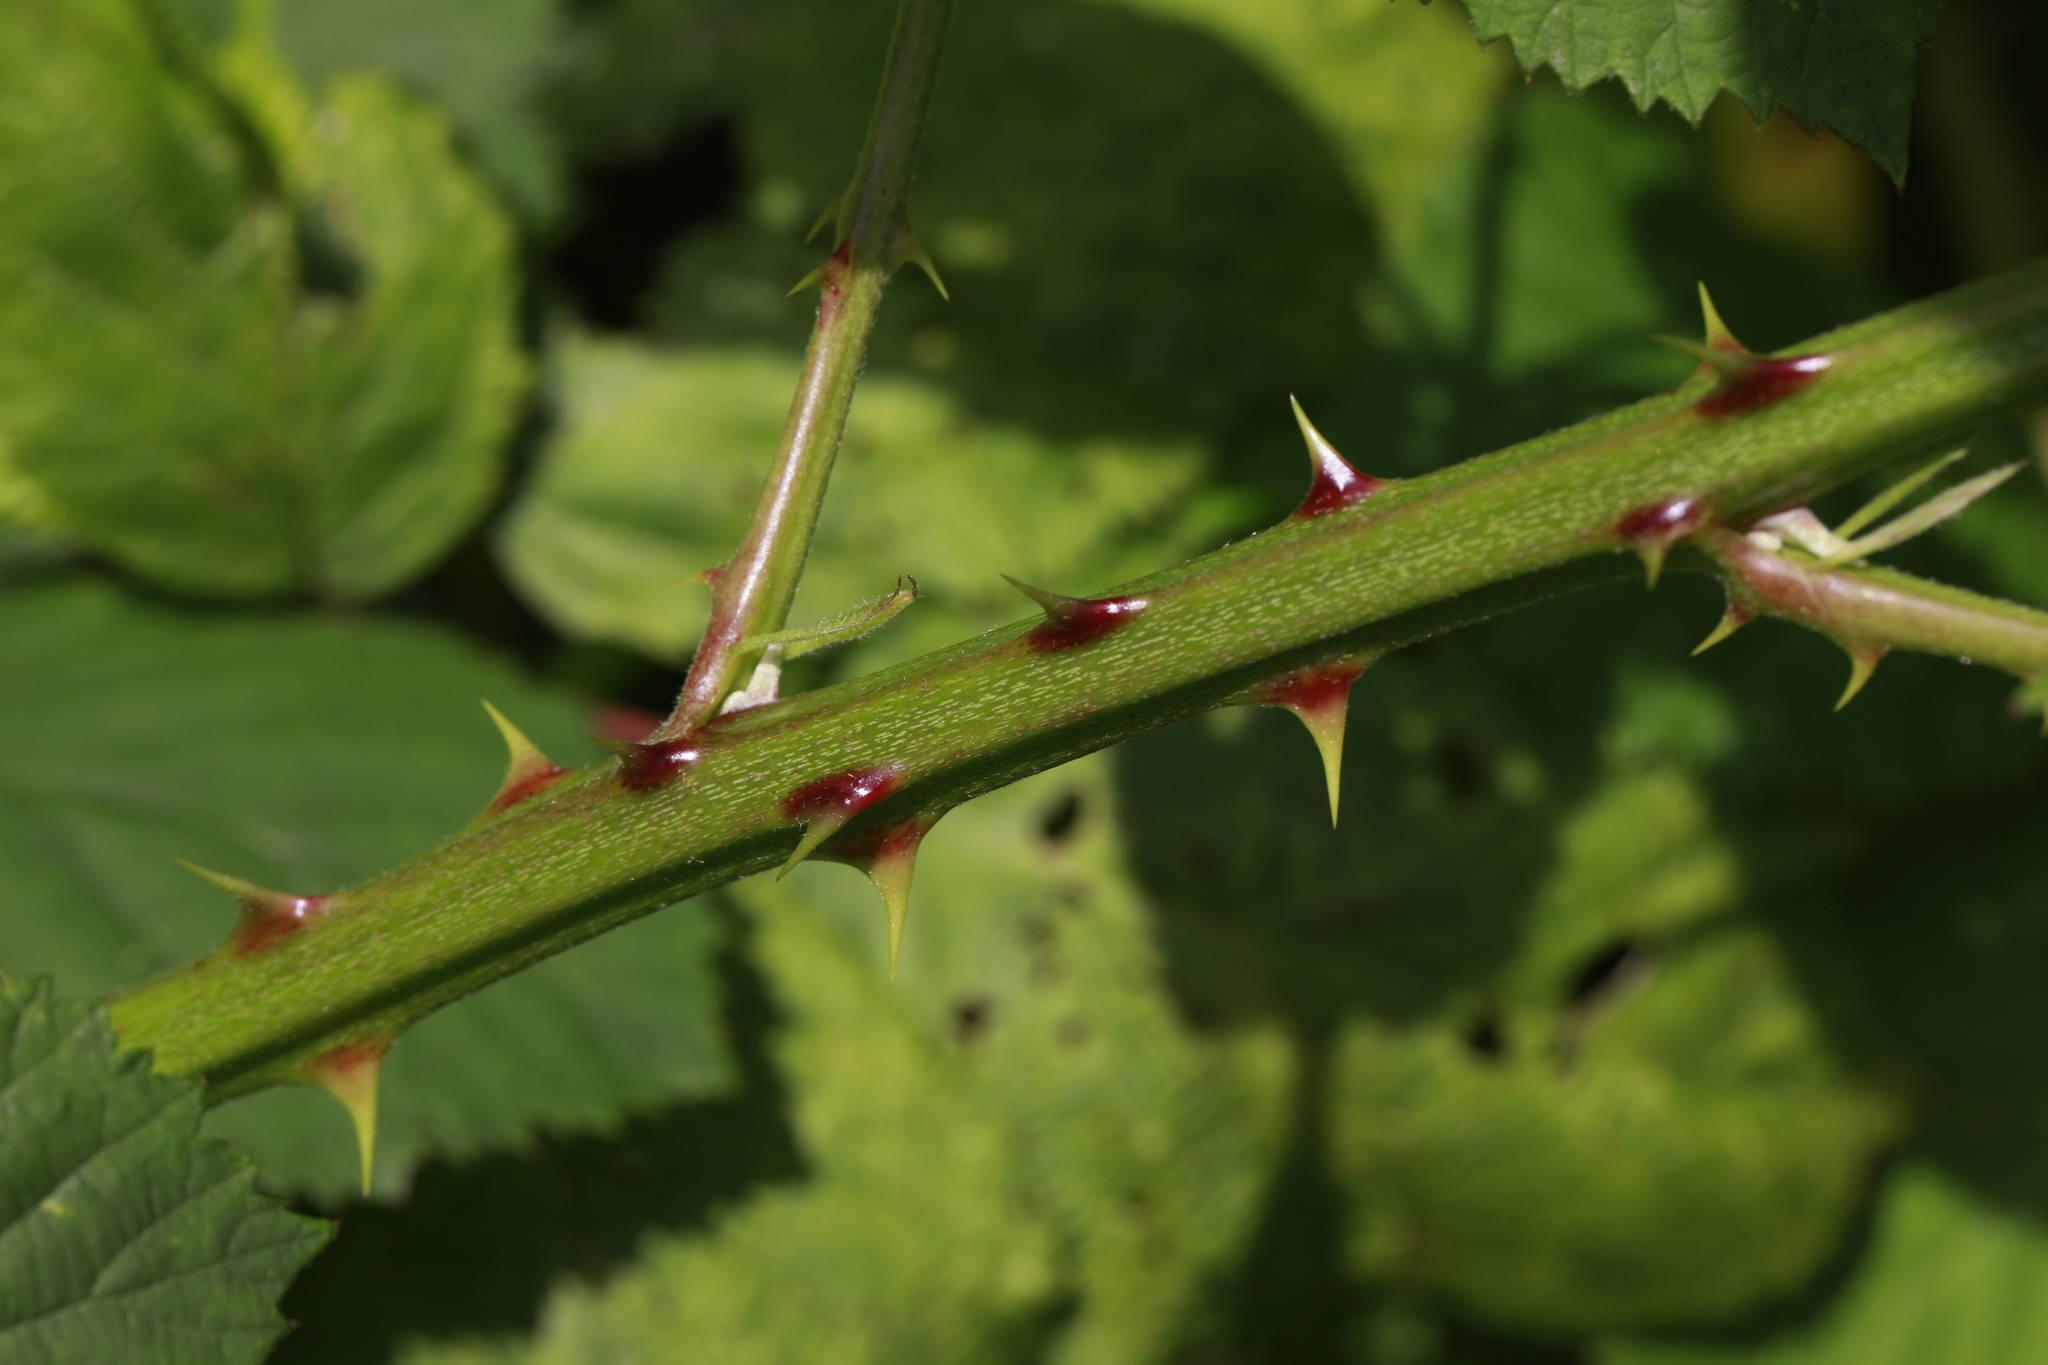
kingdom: Plantae
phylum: Tracheophyta
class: Magnoliopsida
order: Rosales
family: Rosaceae
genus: Rubus
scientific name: Rubus armeniacus
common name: Himalayan blackberry
